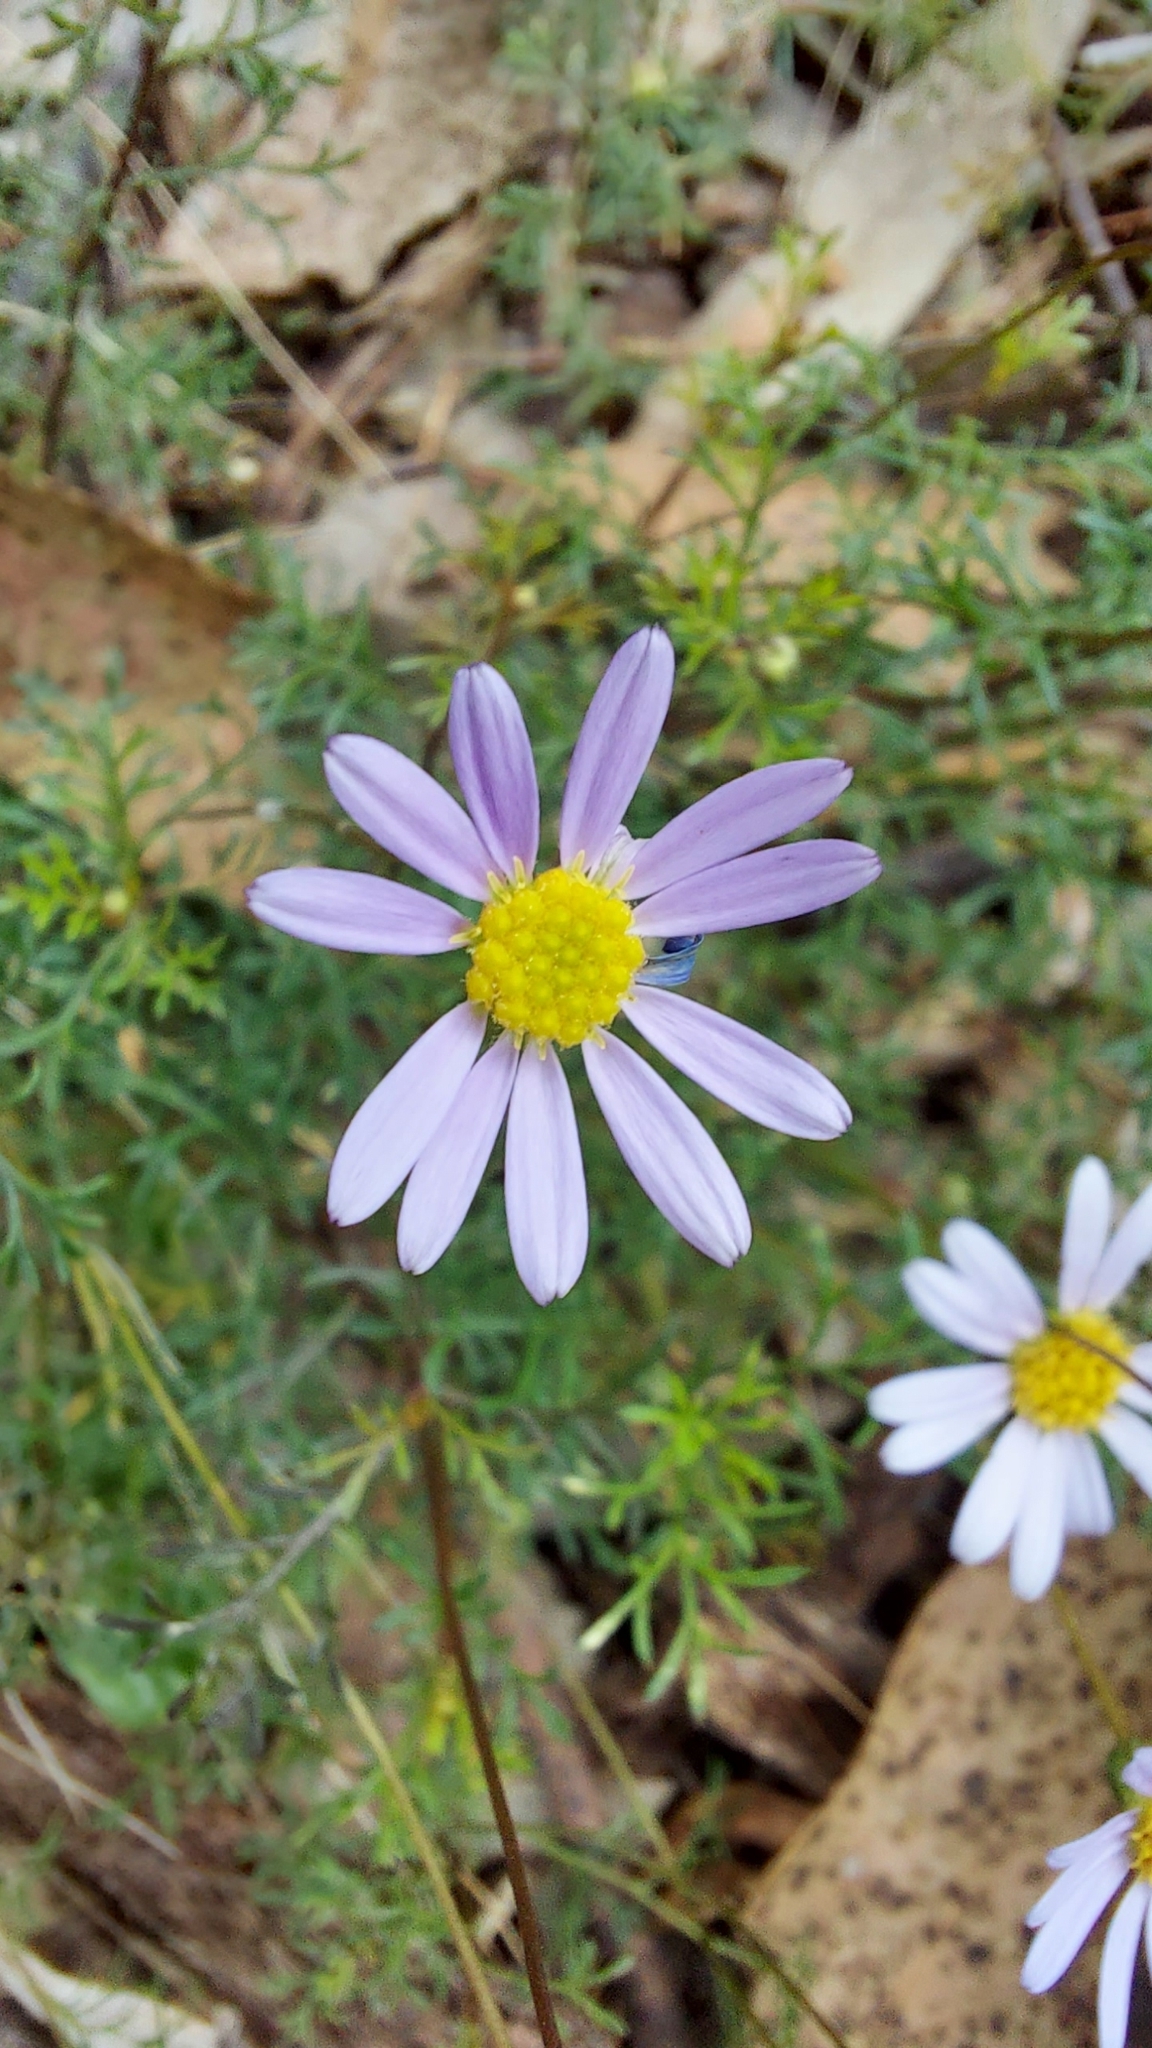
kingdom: Plantae
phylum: Tracheophyta
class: Magnoliopsida
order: Asterales
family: Asteraceae
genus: Brachyscome
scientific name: Brachyscome multifida
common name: Cut-leaf daisy
